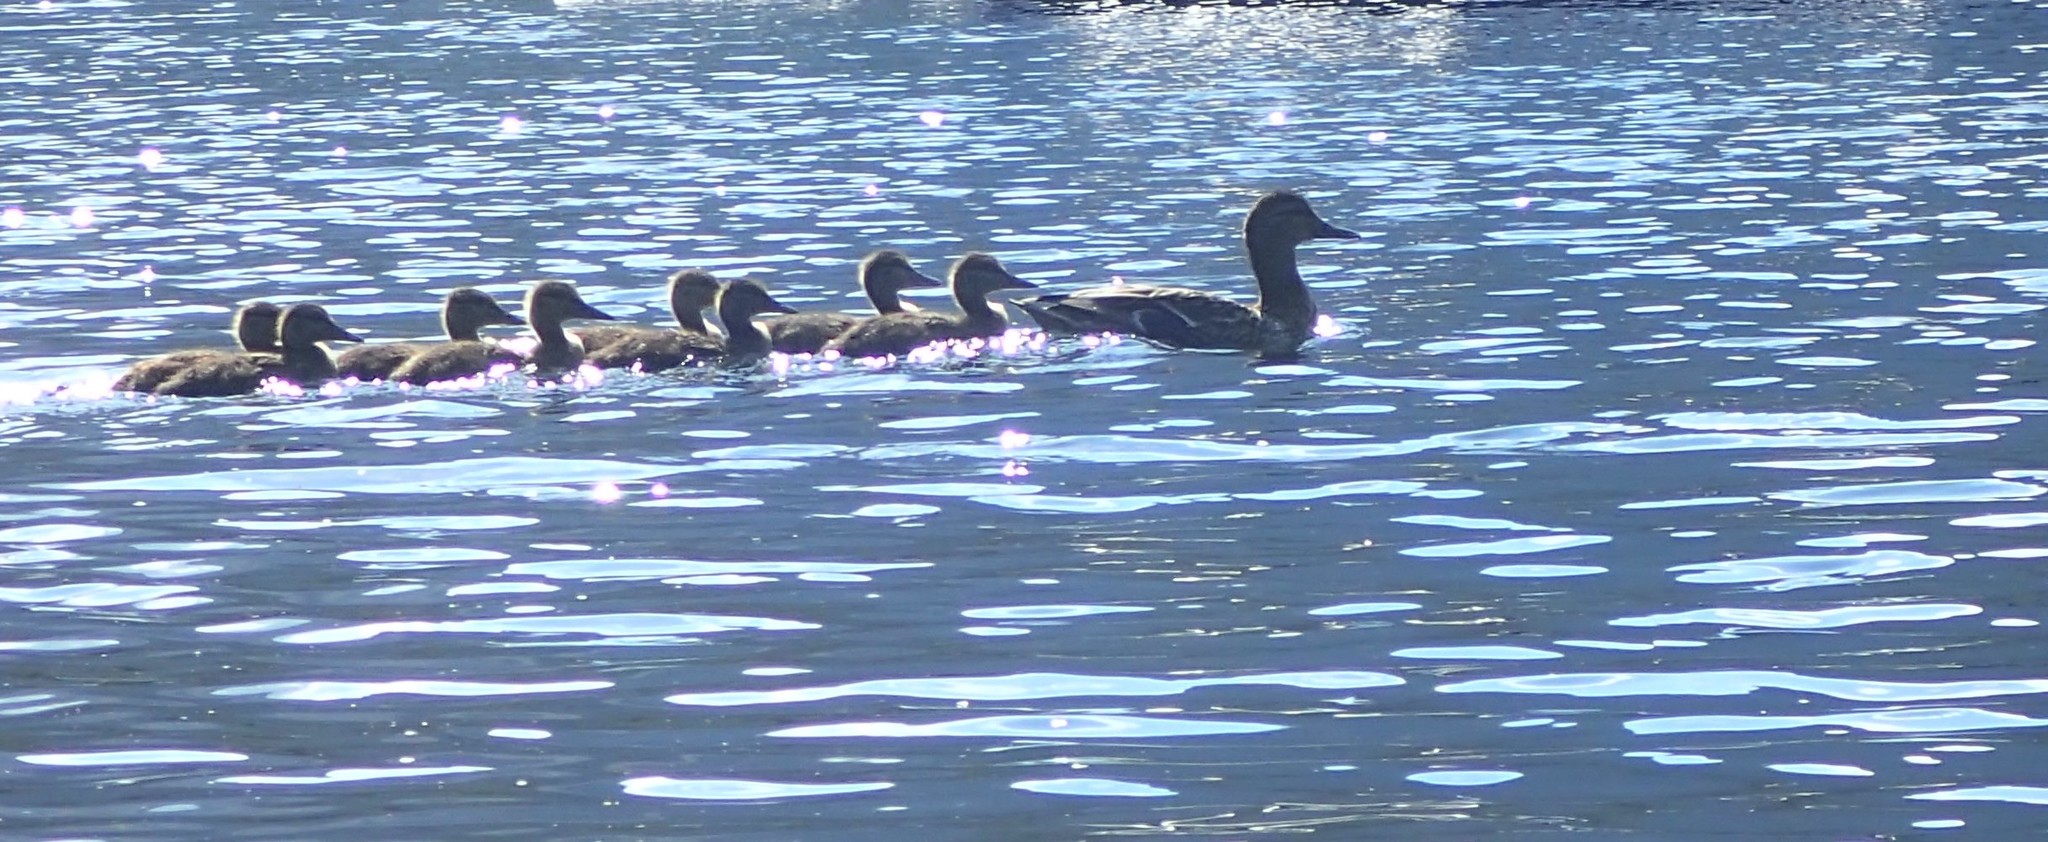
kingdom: Animalia
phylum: Chordata
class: Aves
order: Anseriformes
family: Anatidae
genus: Anas
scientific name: Anas platyrhynchos
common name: Mallard
